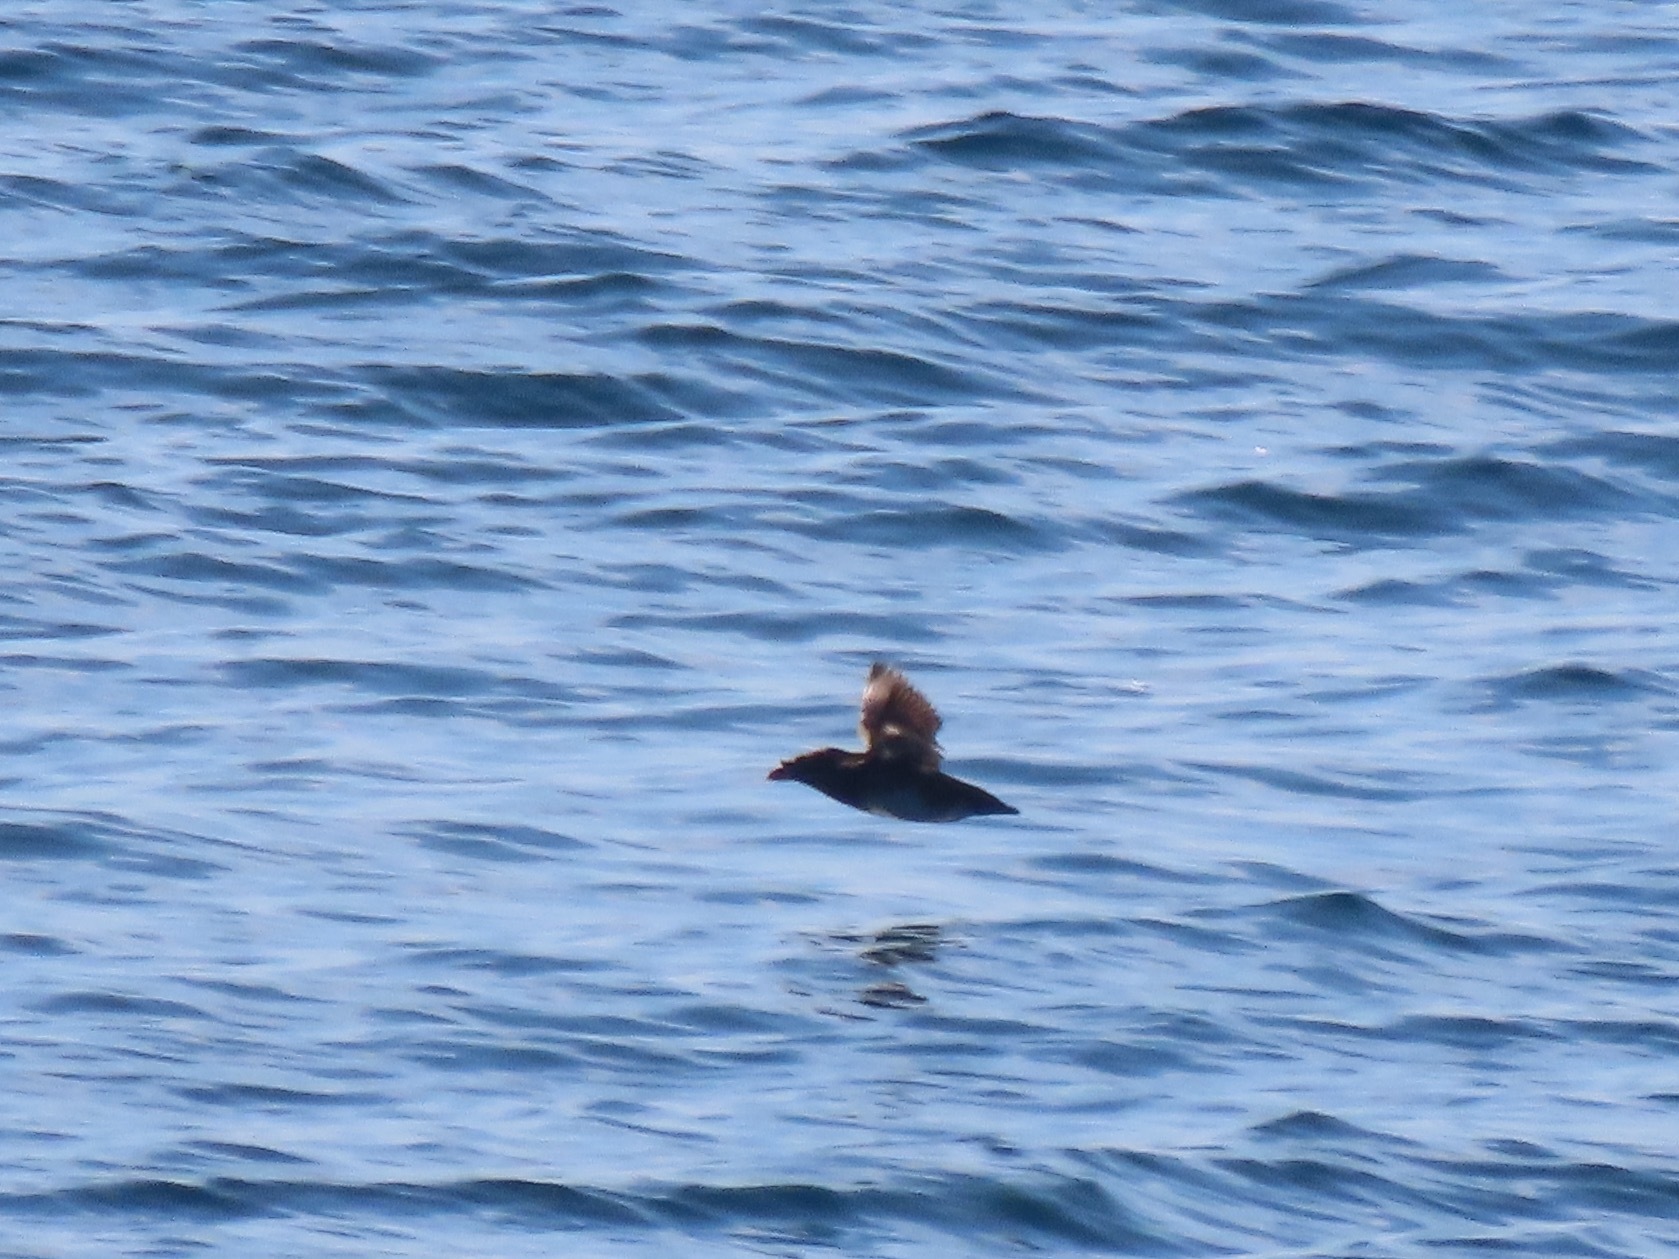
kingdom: Animalia
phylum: Chordata
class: Aves
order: Charadriiformes
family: Alcidae
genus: Cerorhinca
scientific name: Cerorhinca monocerata
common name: Rhinoceros auklet
